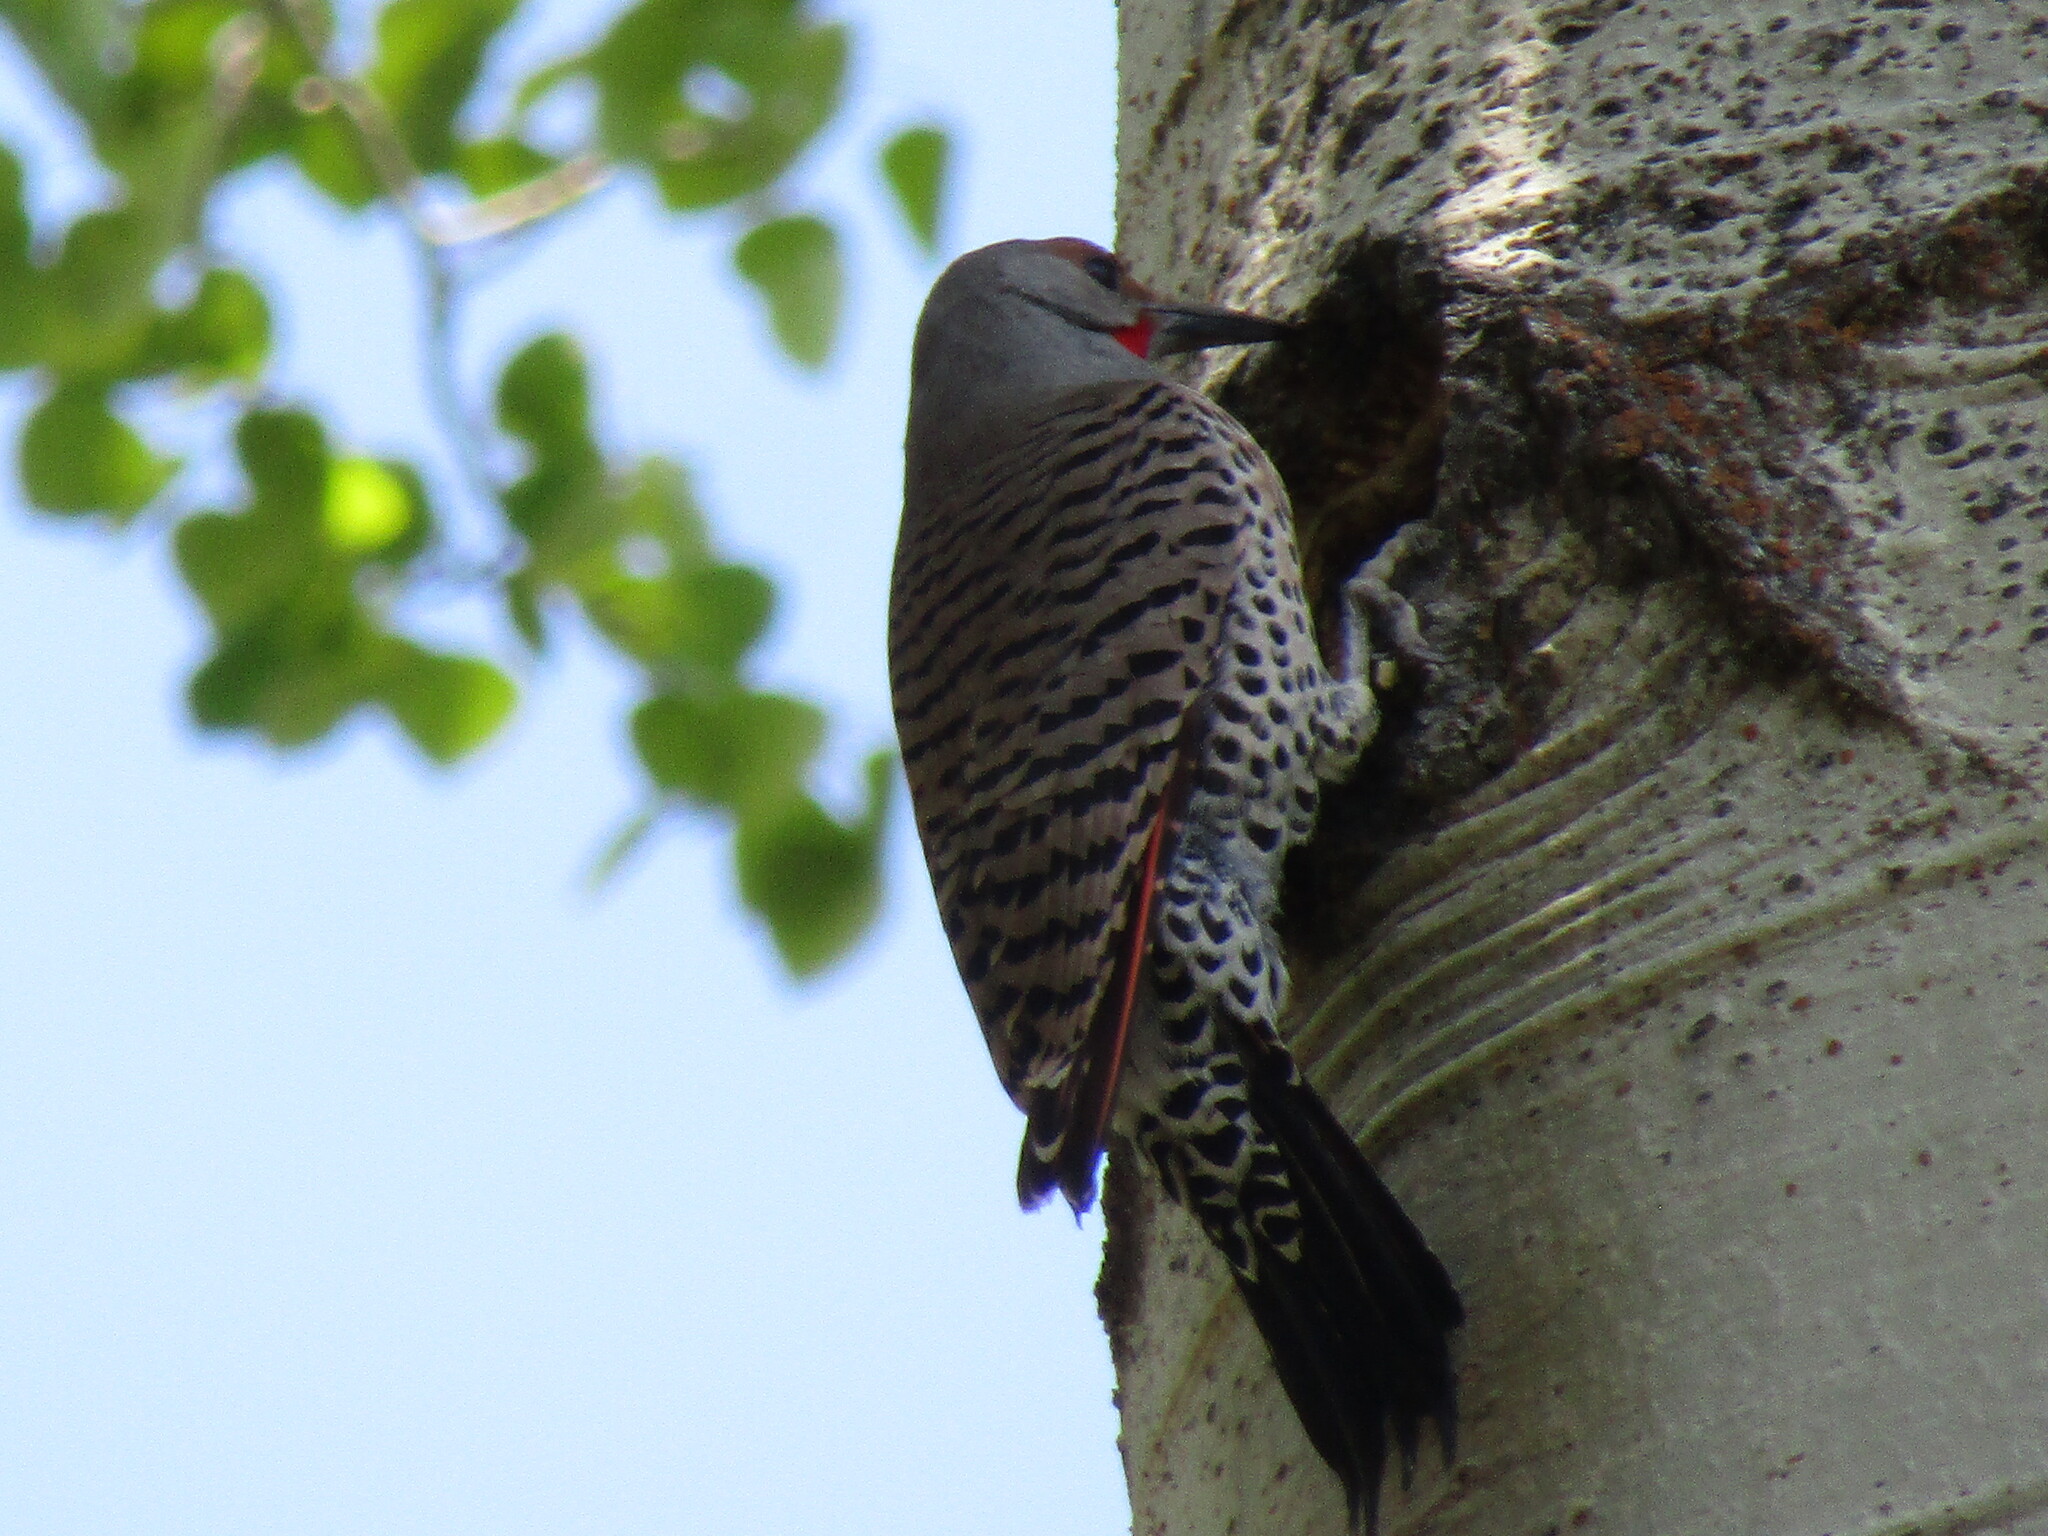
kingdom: Animalia
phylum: Chordata
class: Aves
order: Piciformes
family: Picidae
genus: Colaptes
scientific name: Colaptes auratus
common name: Northern flicker
